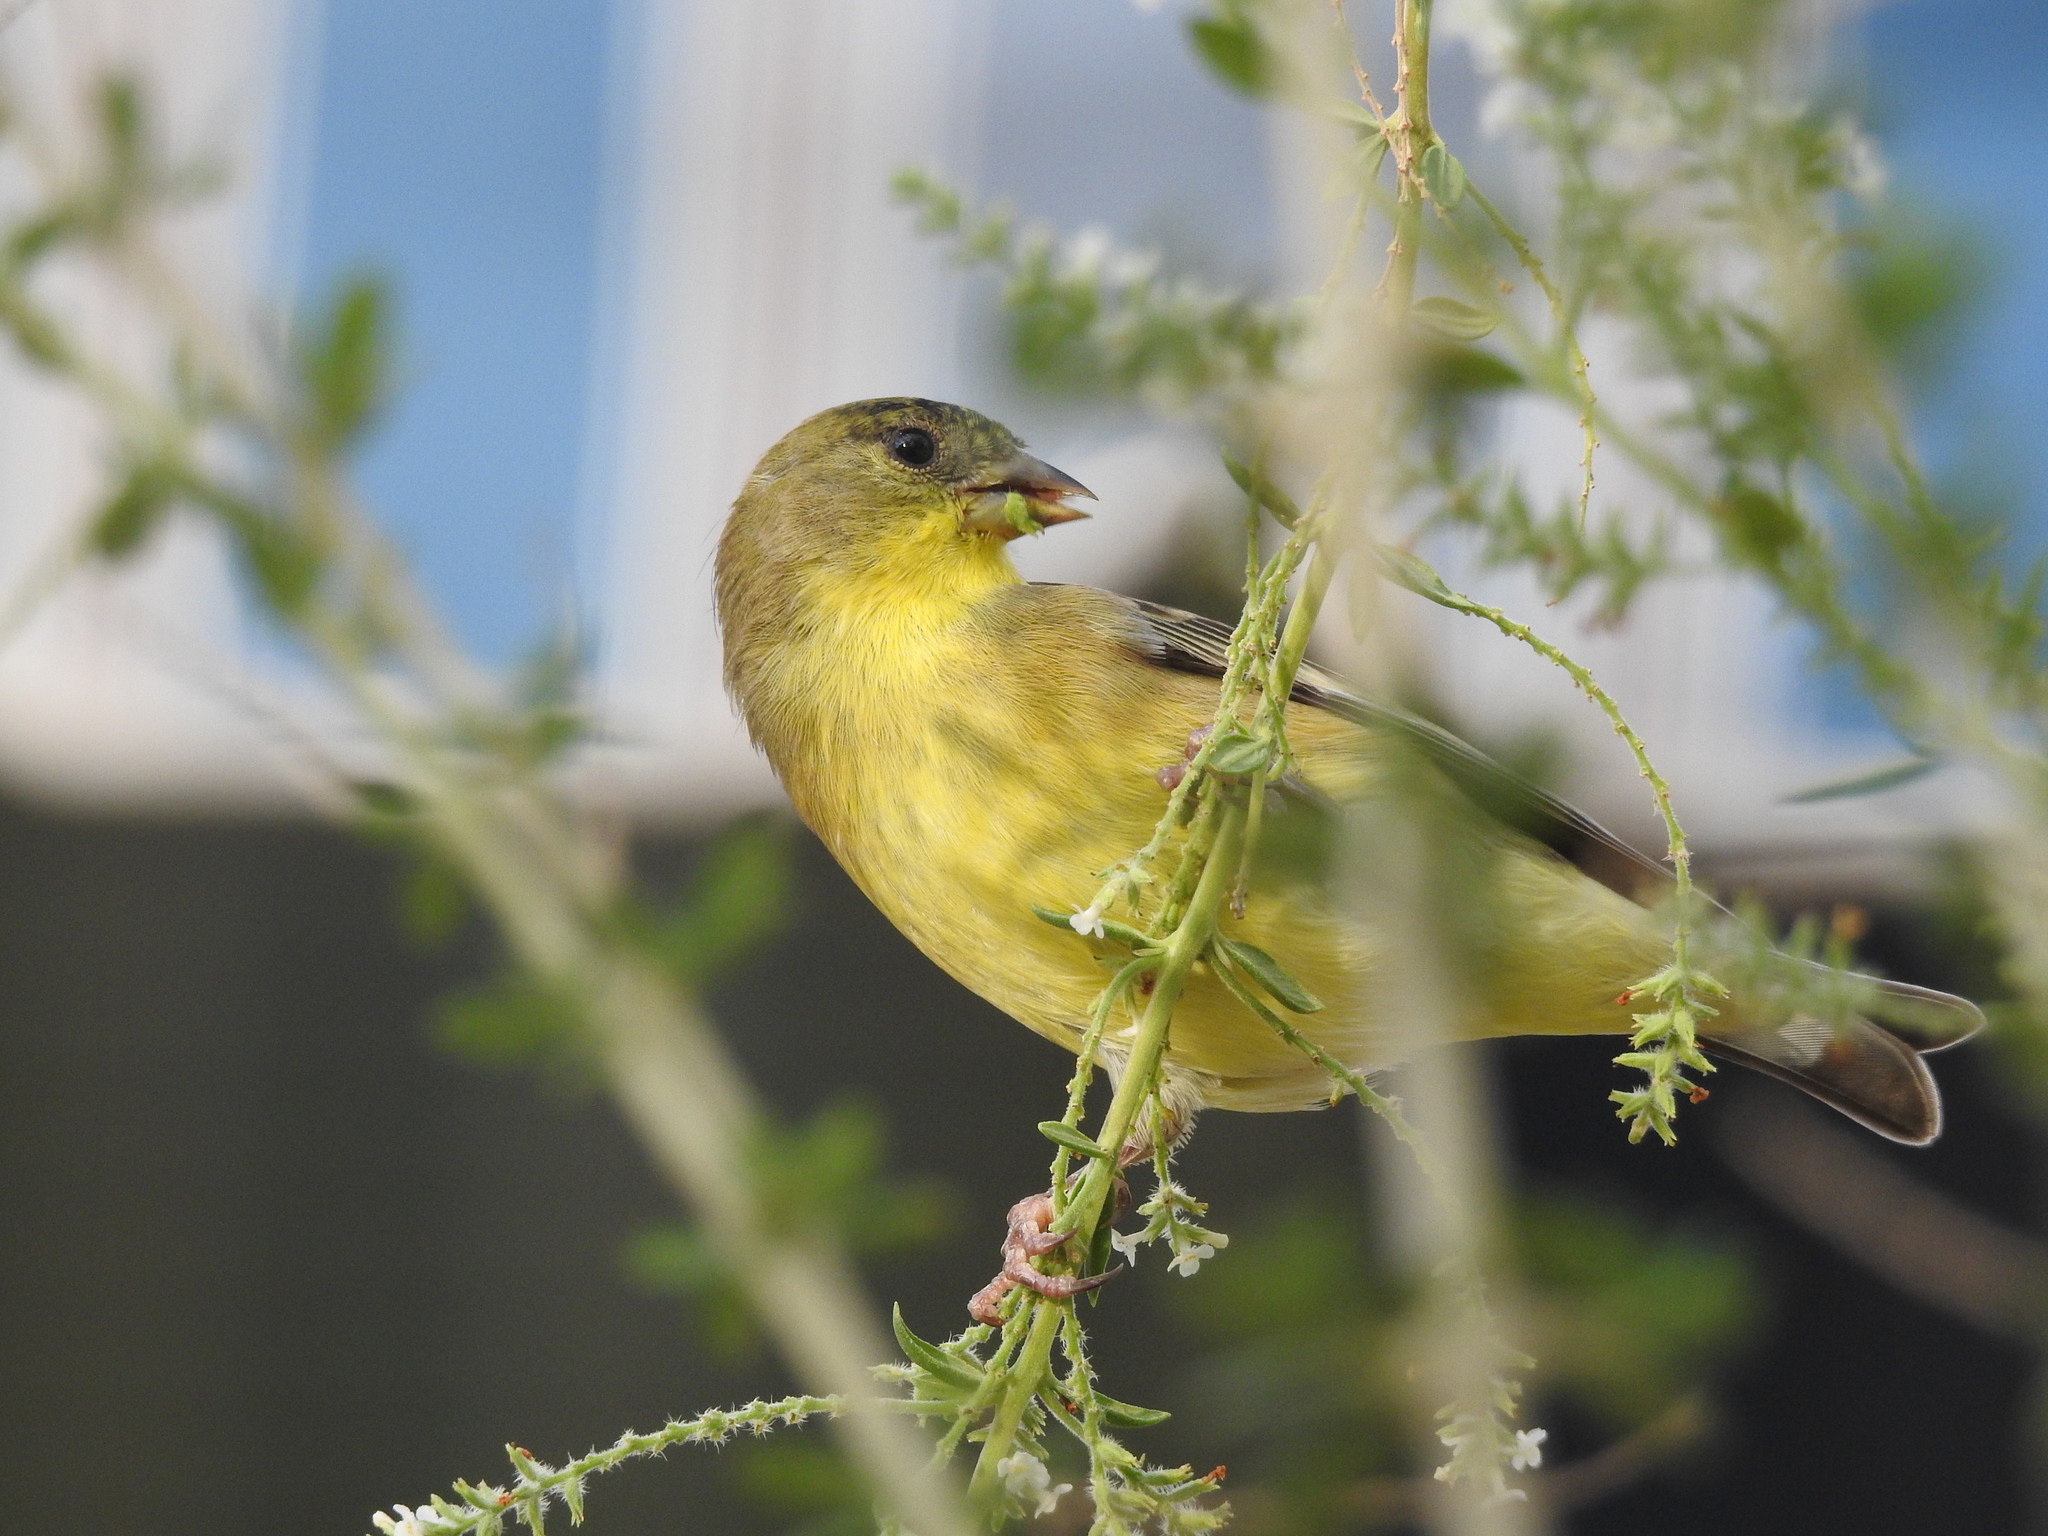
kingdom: Animalia
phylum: Chordata
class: Aves
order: Passeriformes
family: Fringillidae
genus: Spinus
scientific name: Spinus psaltria
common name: Lesser goldfinch
